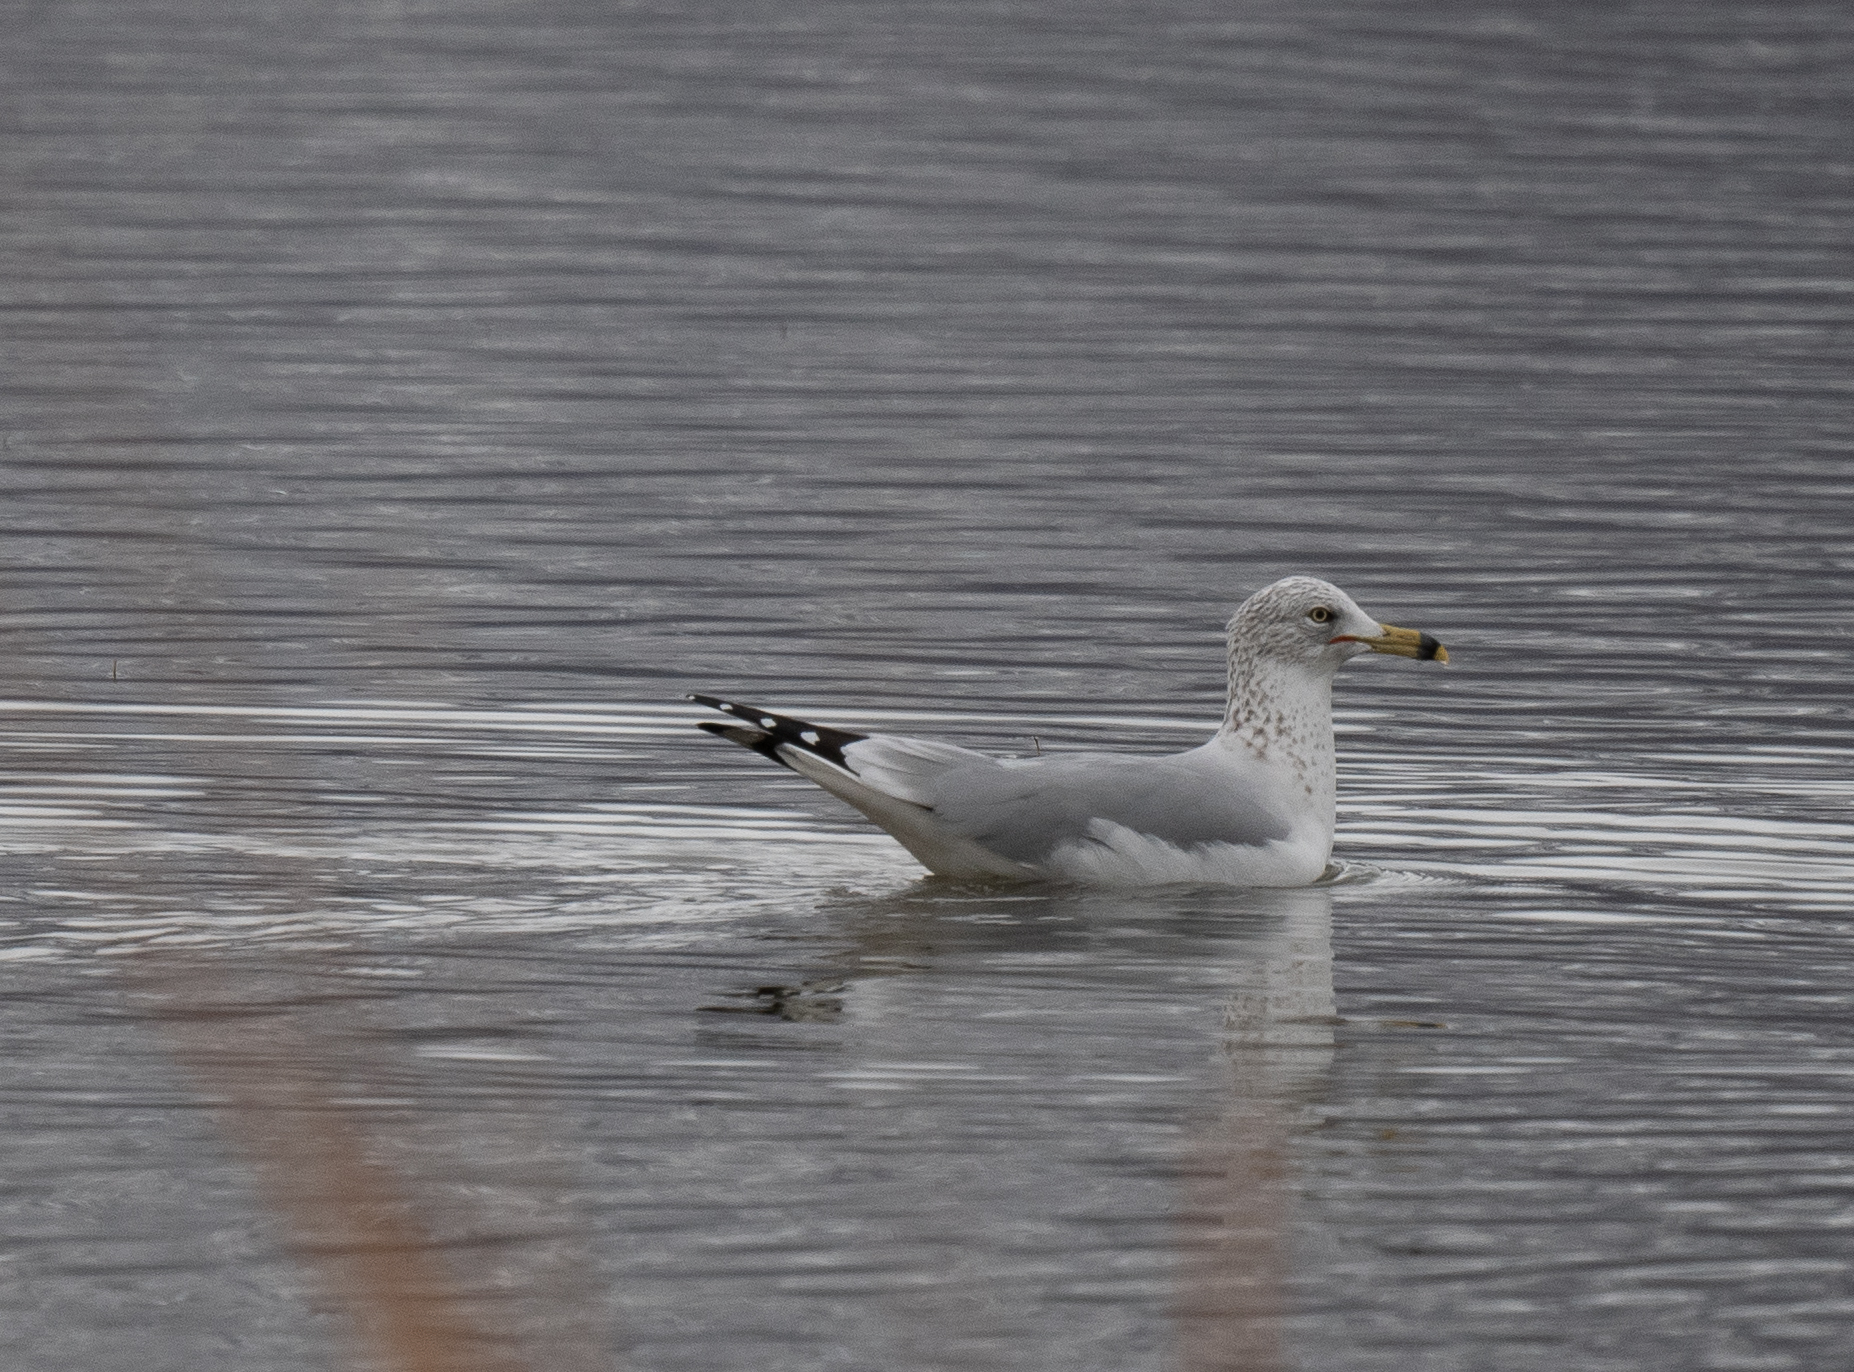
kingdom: Animalia
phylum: Chordata
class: Aves
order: Charadriiformes
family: Laridae
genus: Larus
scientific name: Larus delawarensis
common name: Ring-billed gull
